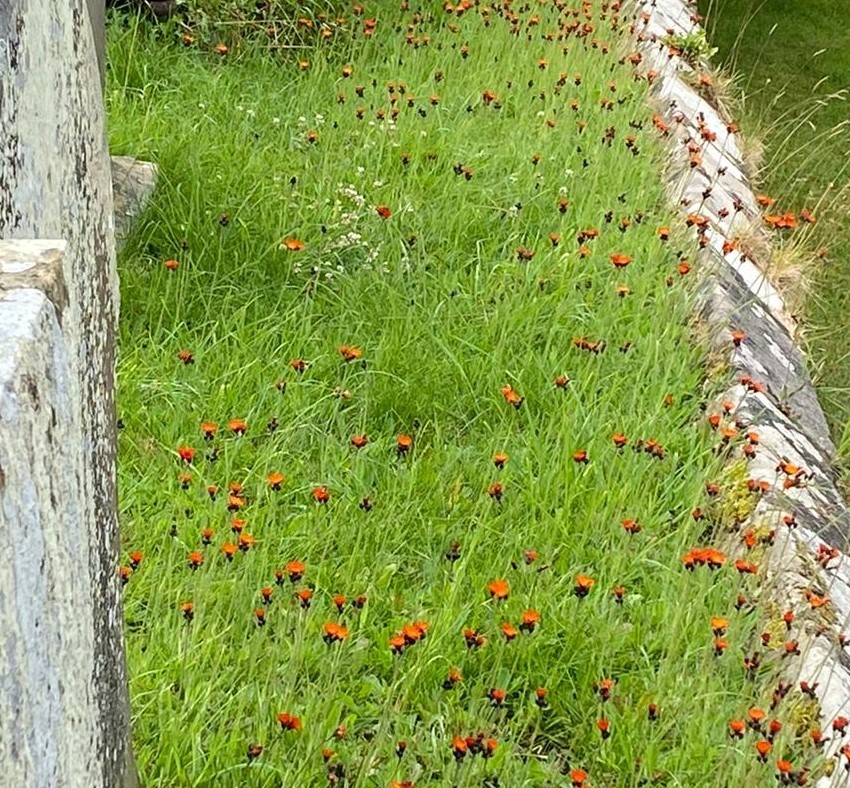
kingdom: Plantae
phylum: Tracheophyta
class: Magnoliopsida
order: Asterales
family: Asteraceae
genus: Pilosella
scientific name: Pilosella aurantiaca
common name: Fox-and-cubs
